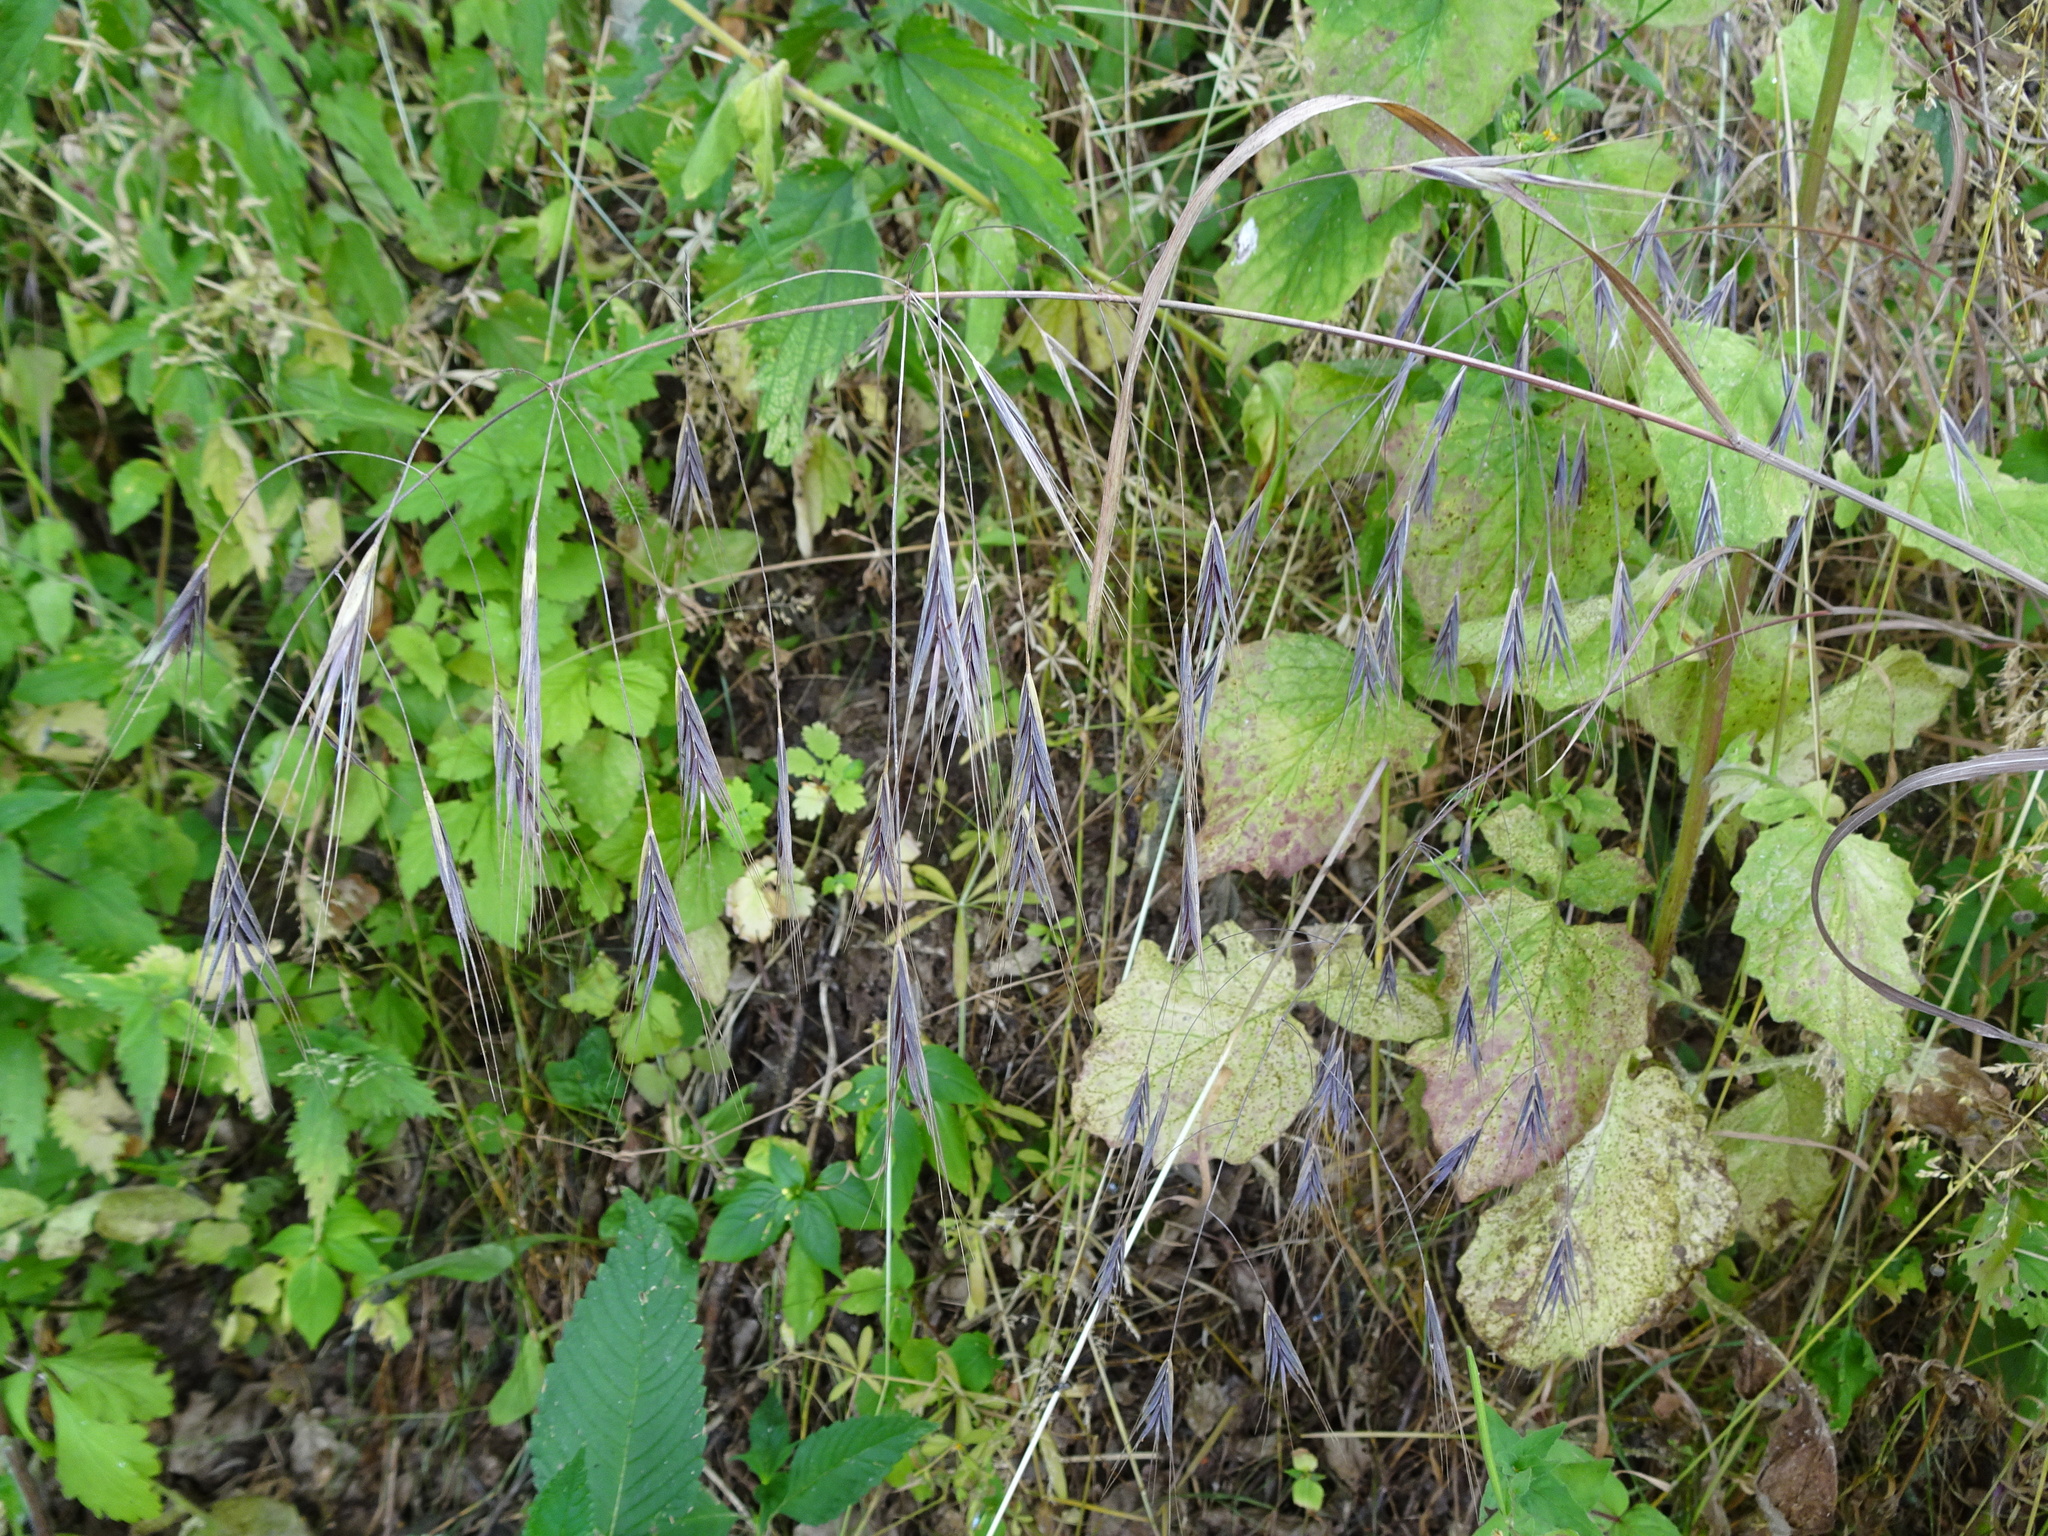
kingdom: Plantae
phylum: Tracheophyta
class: Liliopsida
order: Poales
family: Poaceae
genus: Bromus
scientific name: Bromus sterilis
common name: Poverty brome
